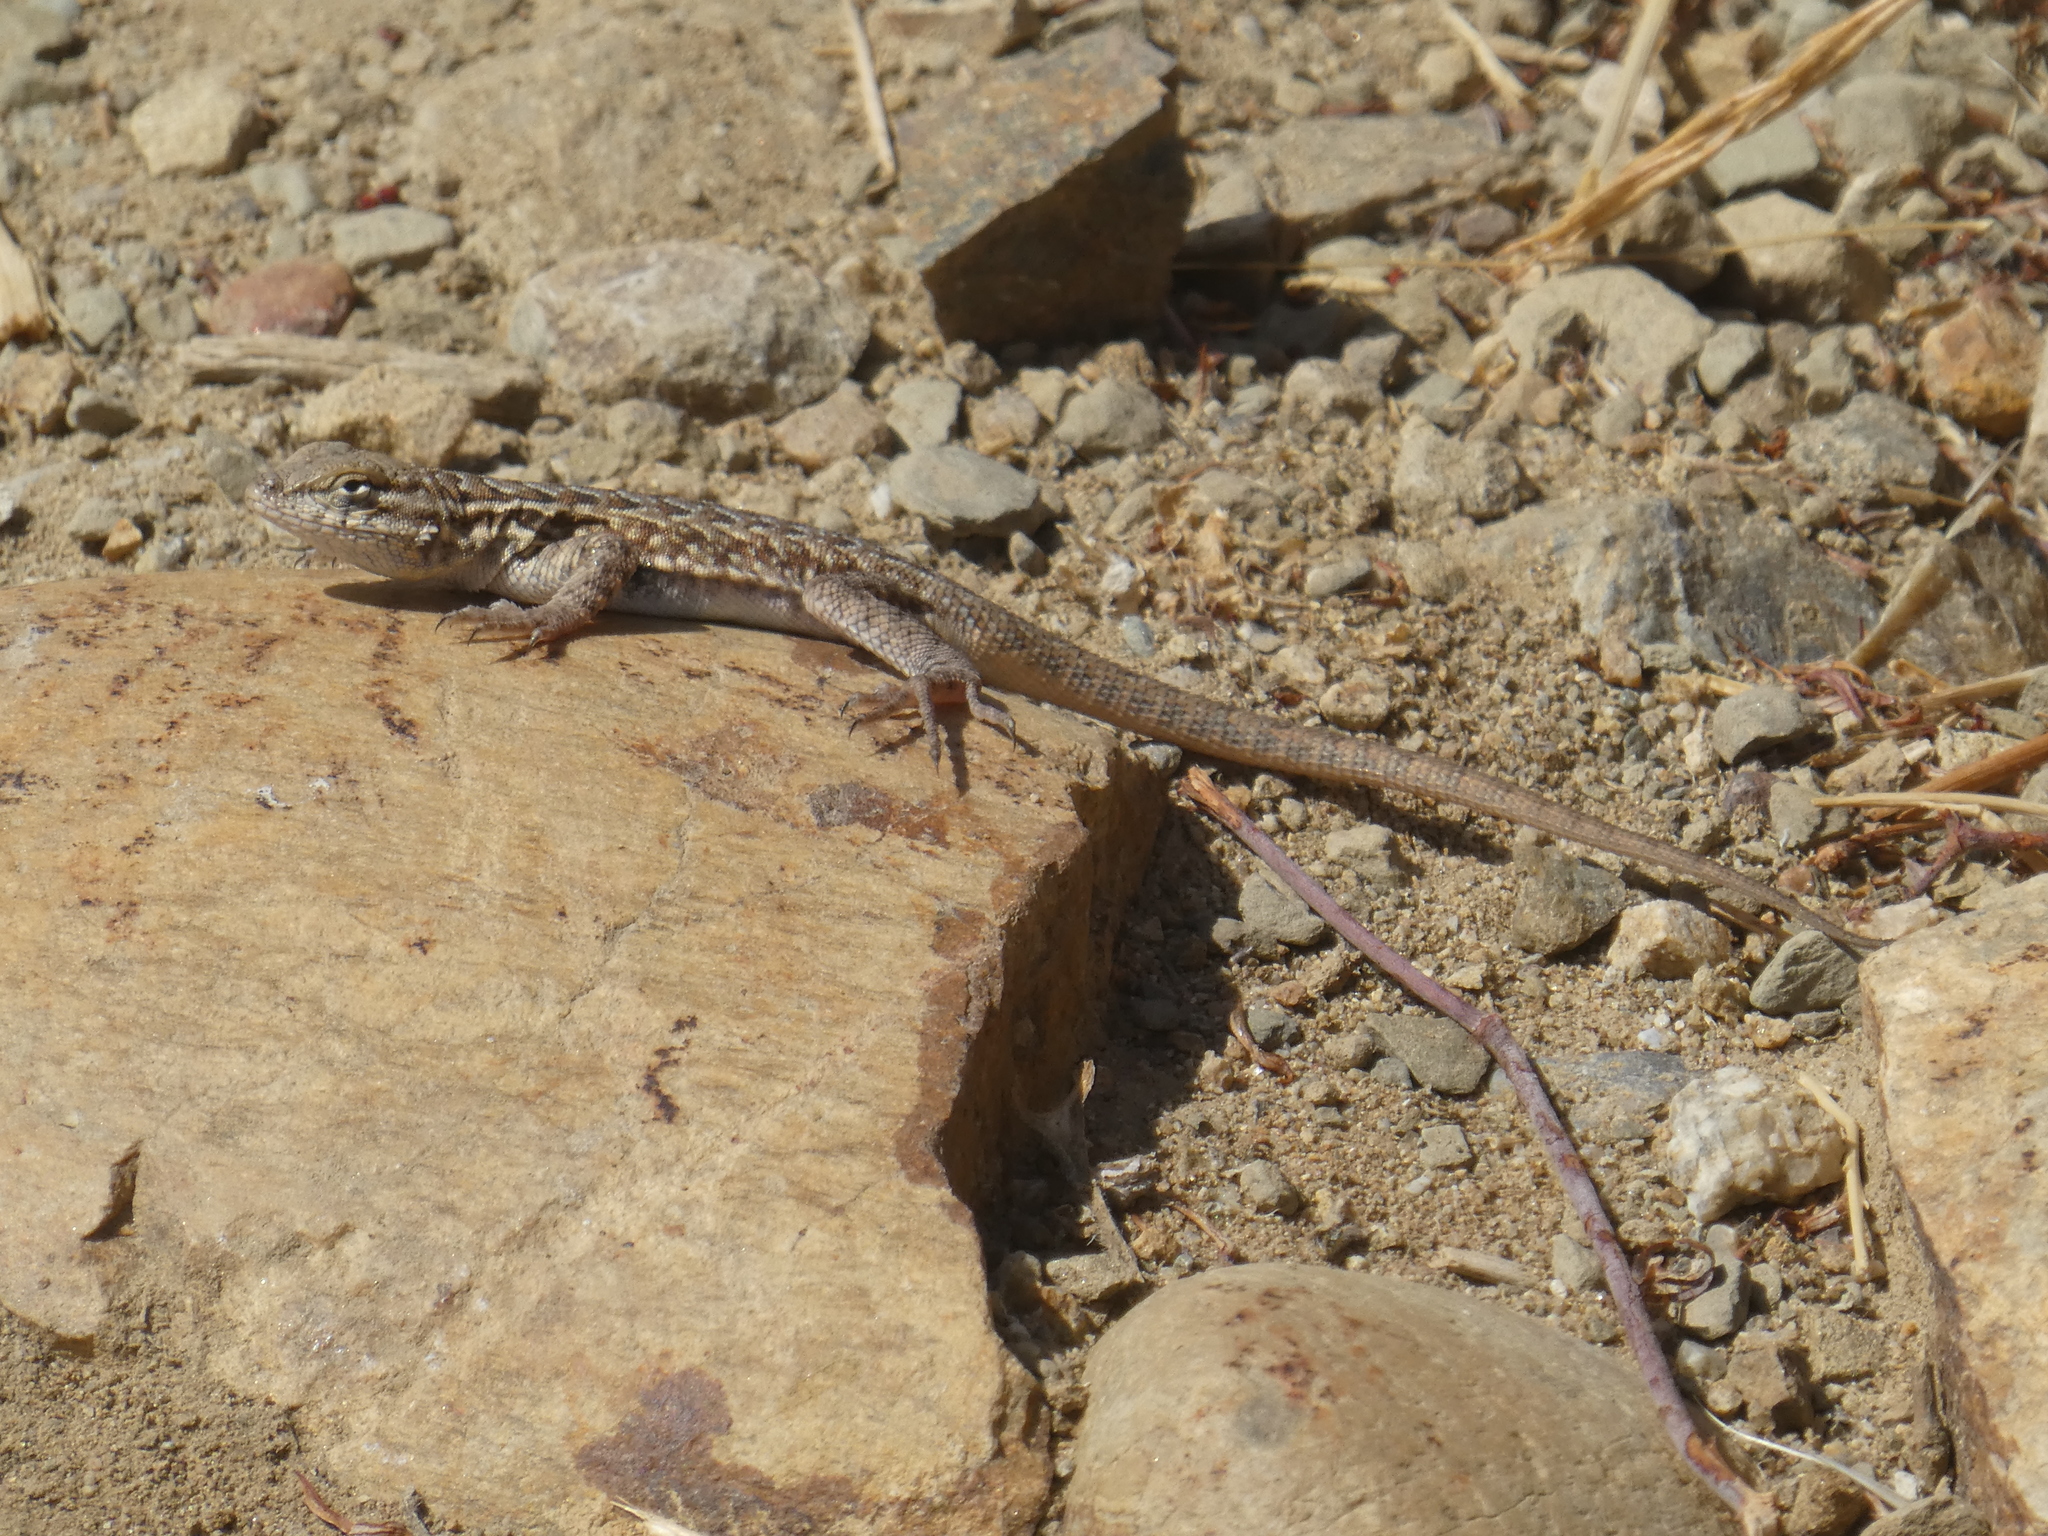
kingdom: Animalia
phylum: Chordata
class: Squamata
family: Phrynosomatidae
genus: Uta
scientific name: Uta stansburiana
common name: Side-blotched lizard
